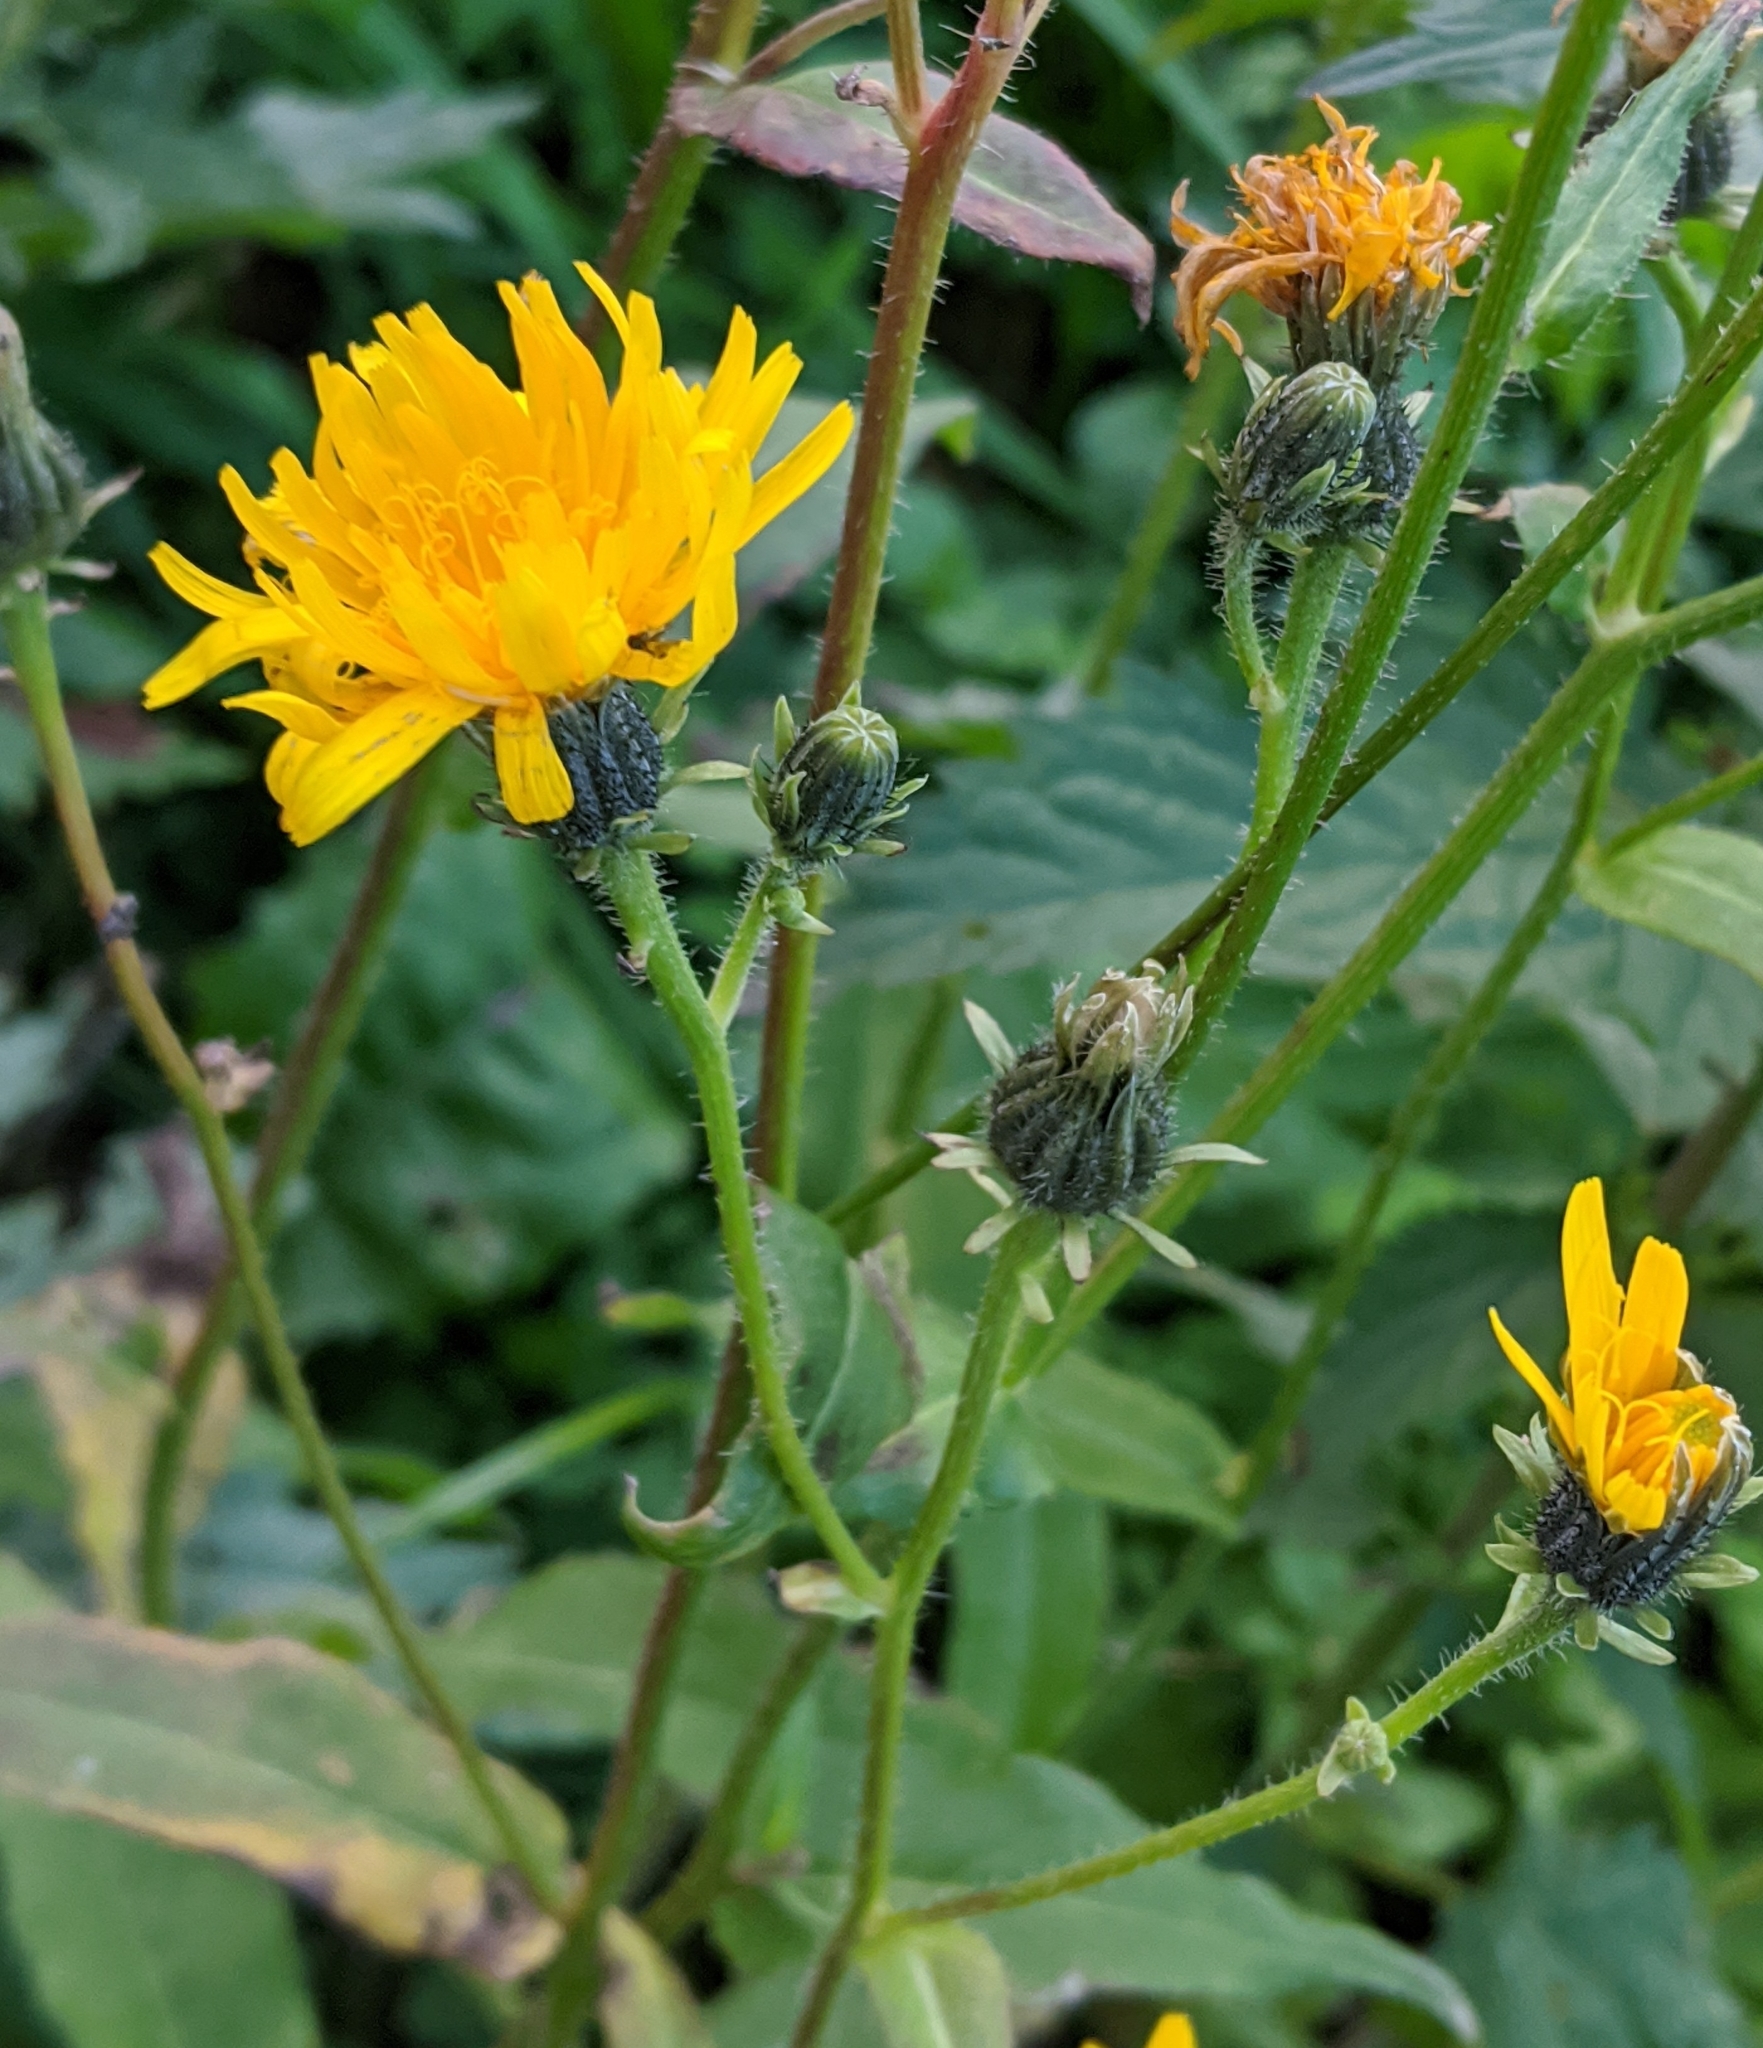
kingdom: Plantae
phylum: Tracheophyta
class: Magnoliopsida
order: Asterales
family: Asteraceae
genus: Picris
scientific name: Picris hieracioides
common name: Hawkweed oxtongue
